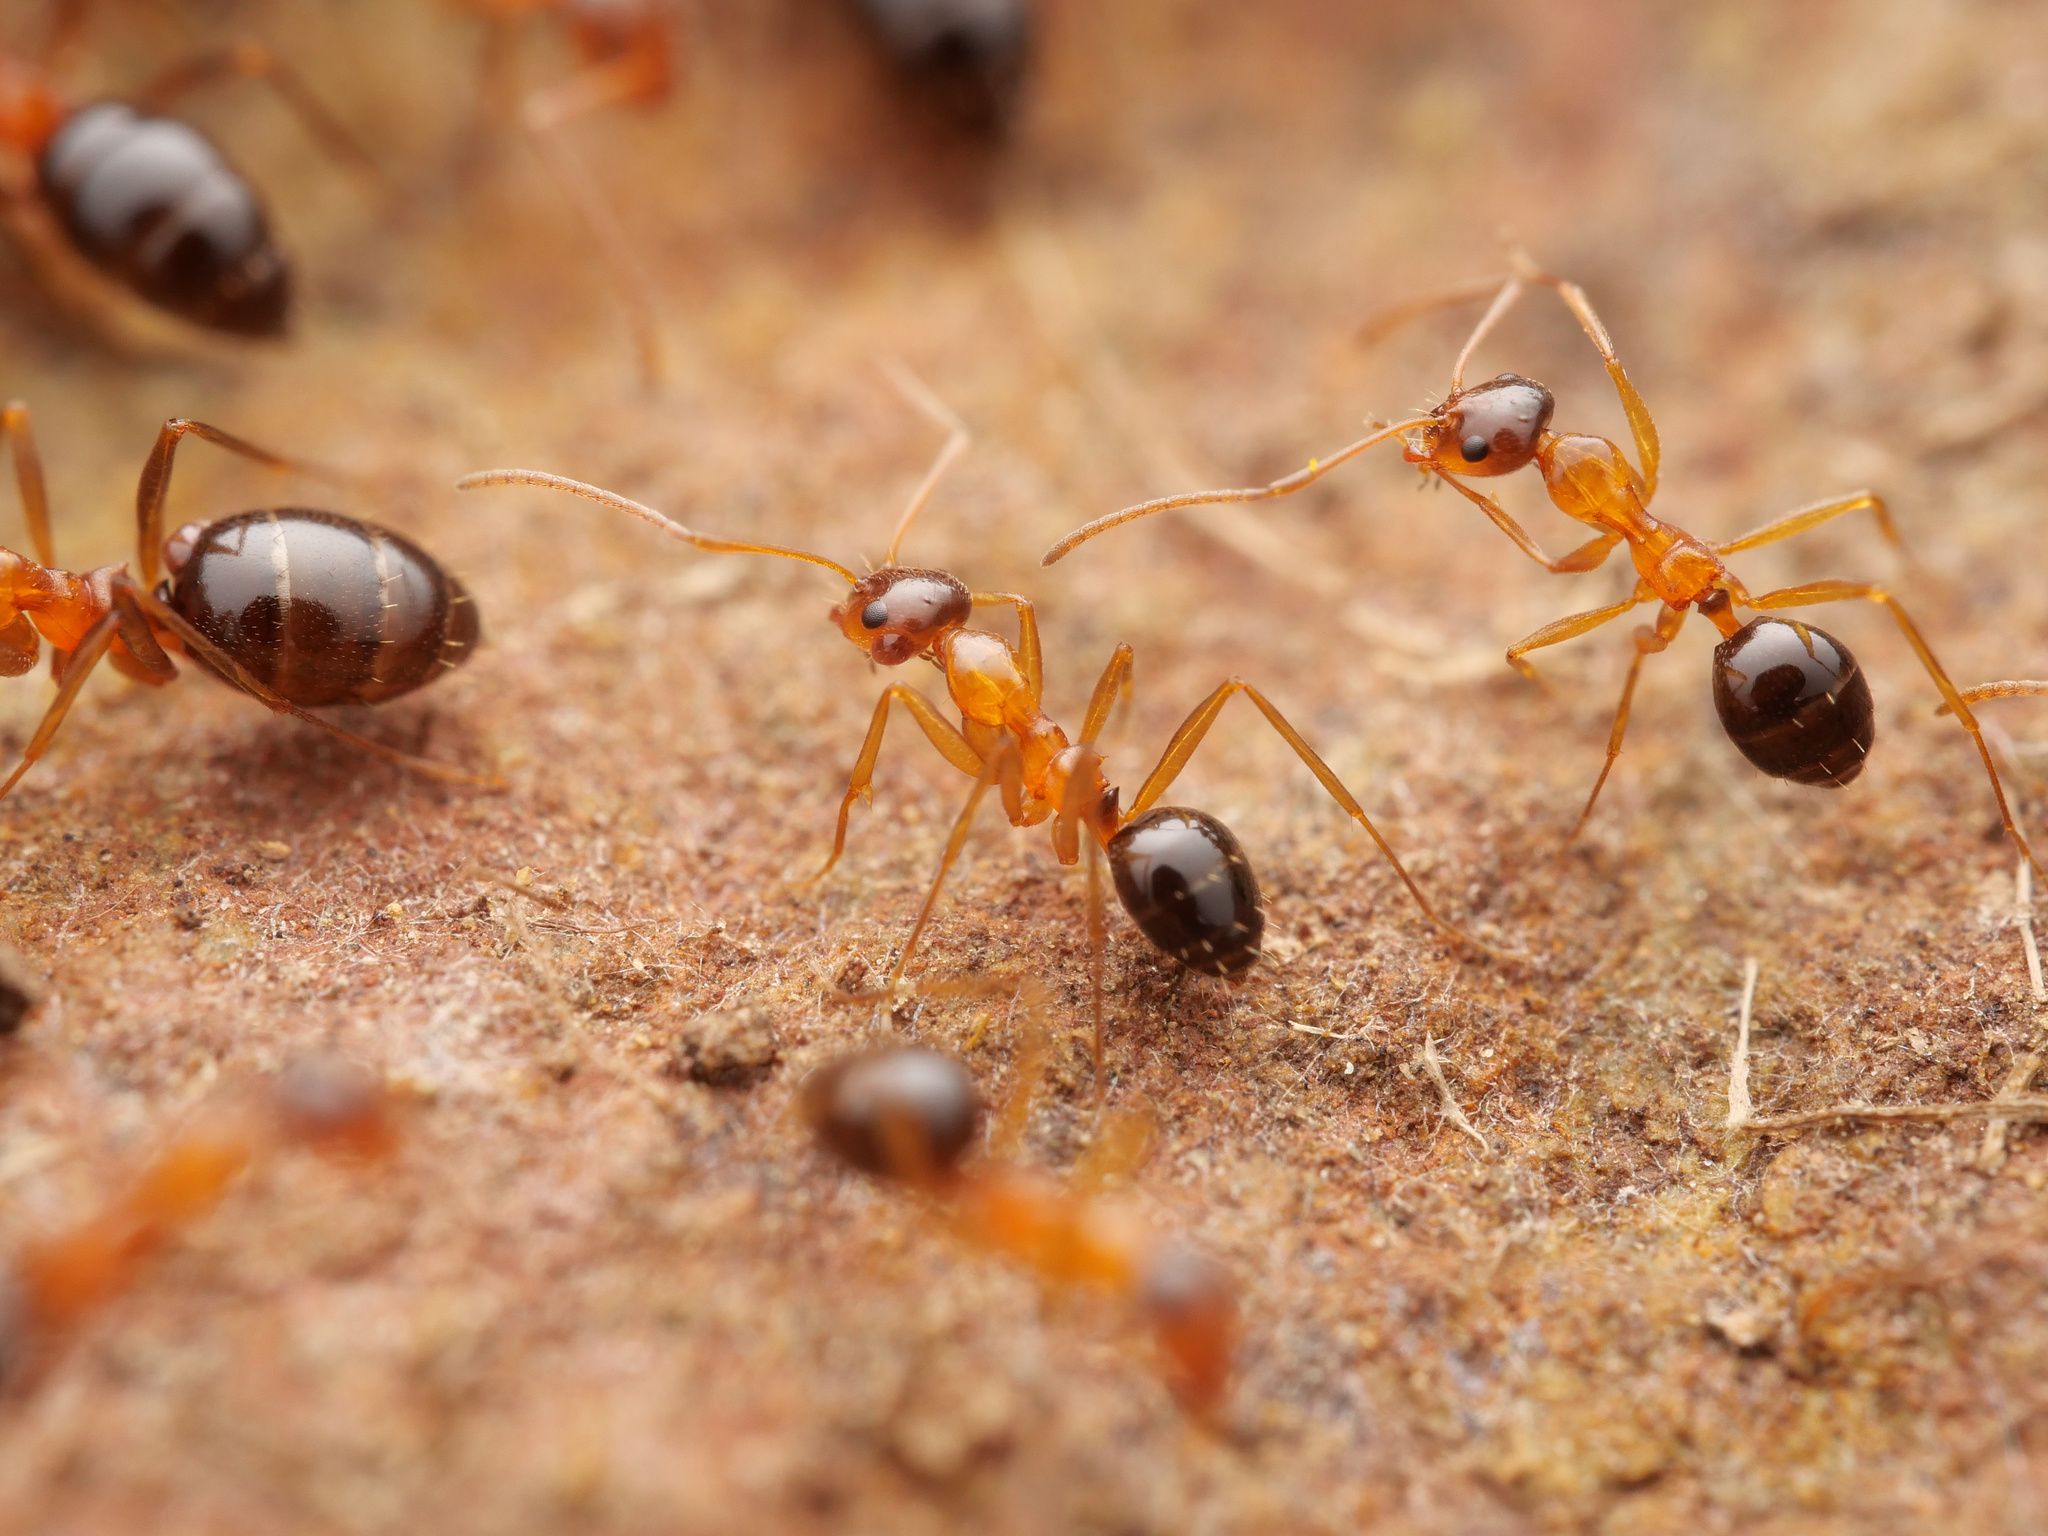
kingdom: Animalia
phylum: Arthropoda
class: Insecta
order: Hymenoptera
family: Formicidae
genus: Lepisiota
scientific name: Lepisiota frauenfeldi
